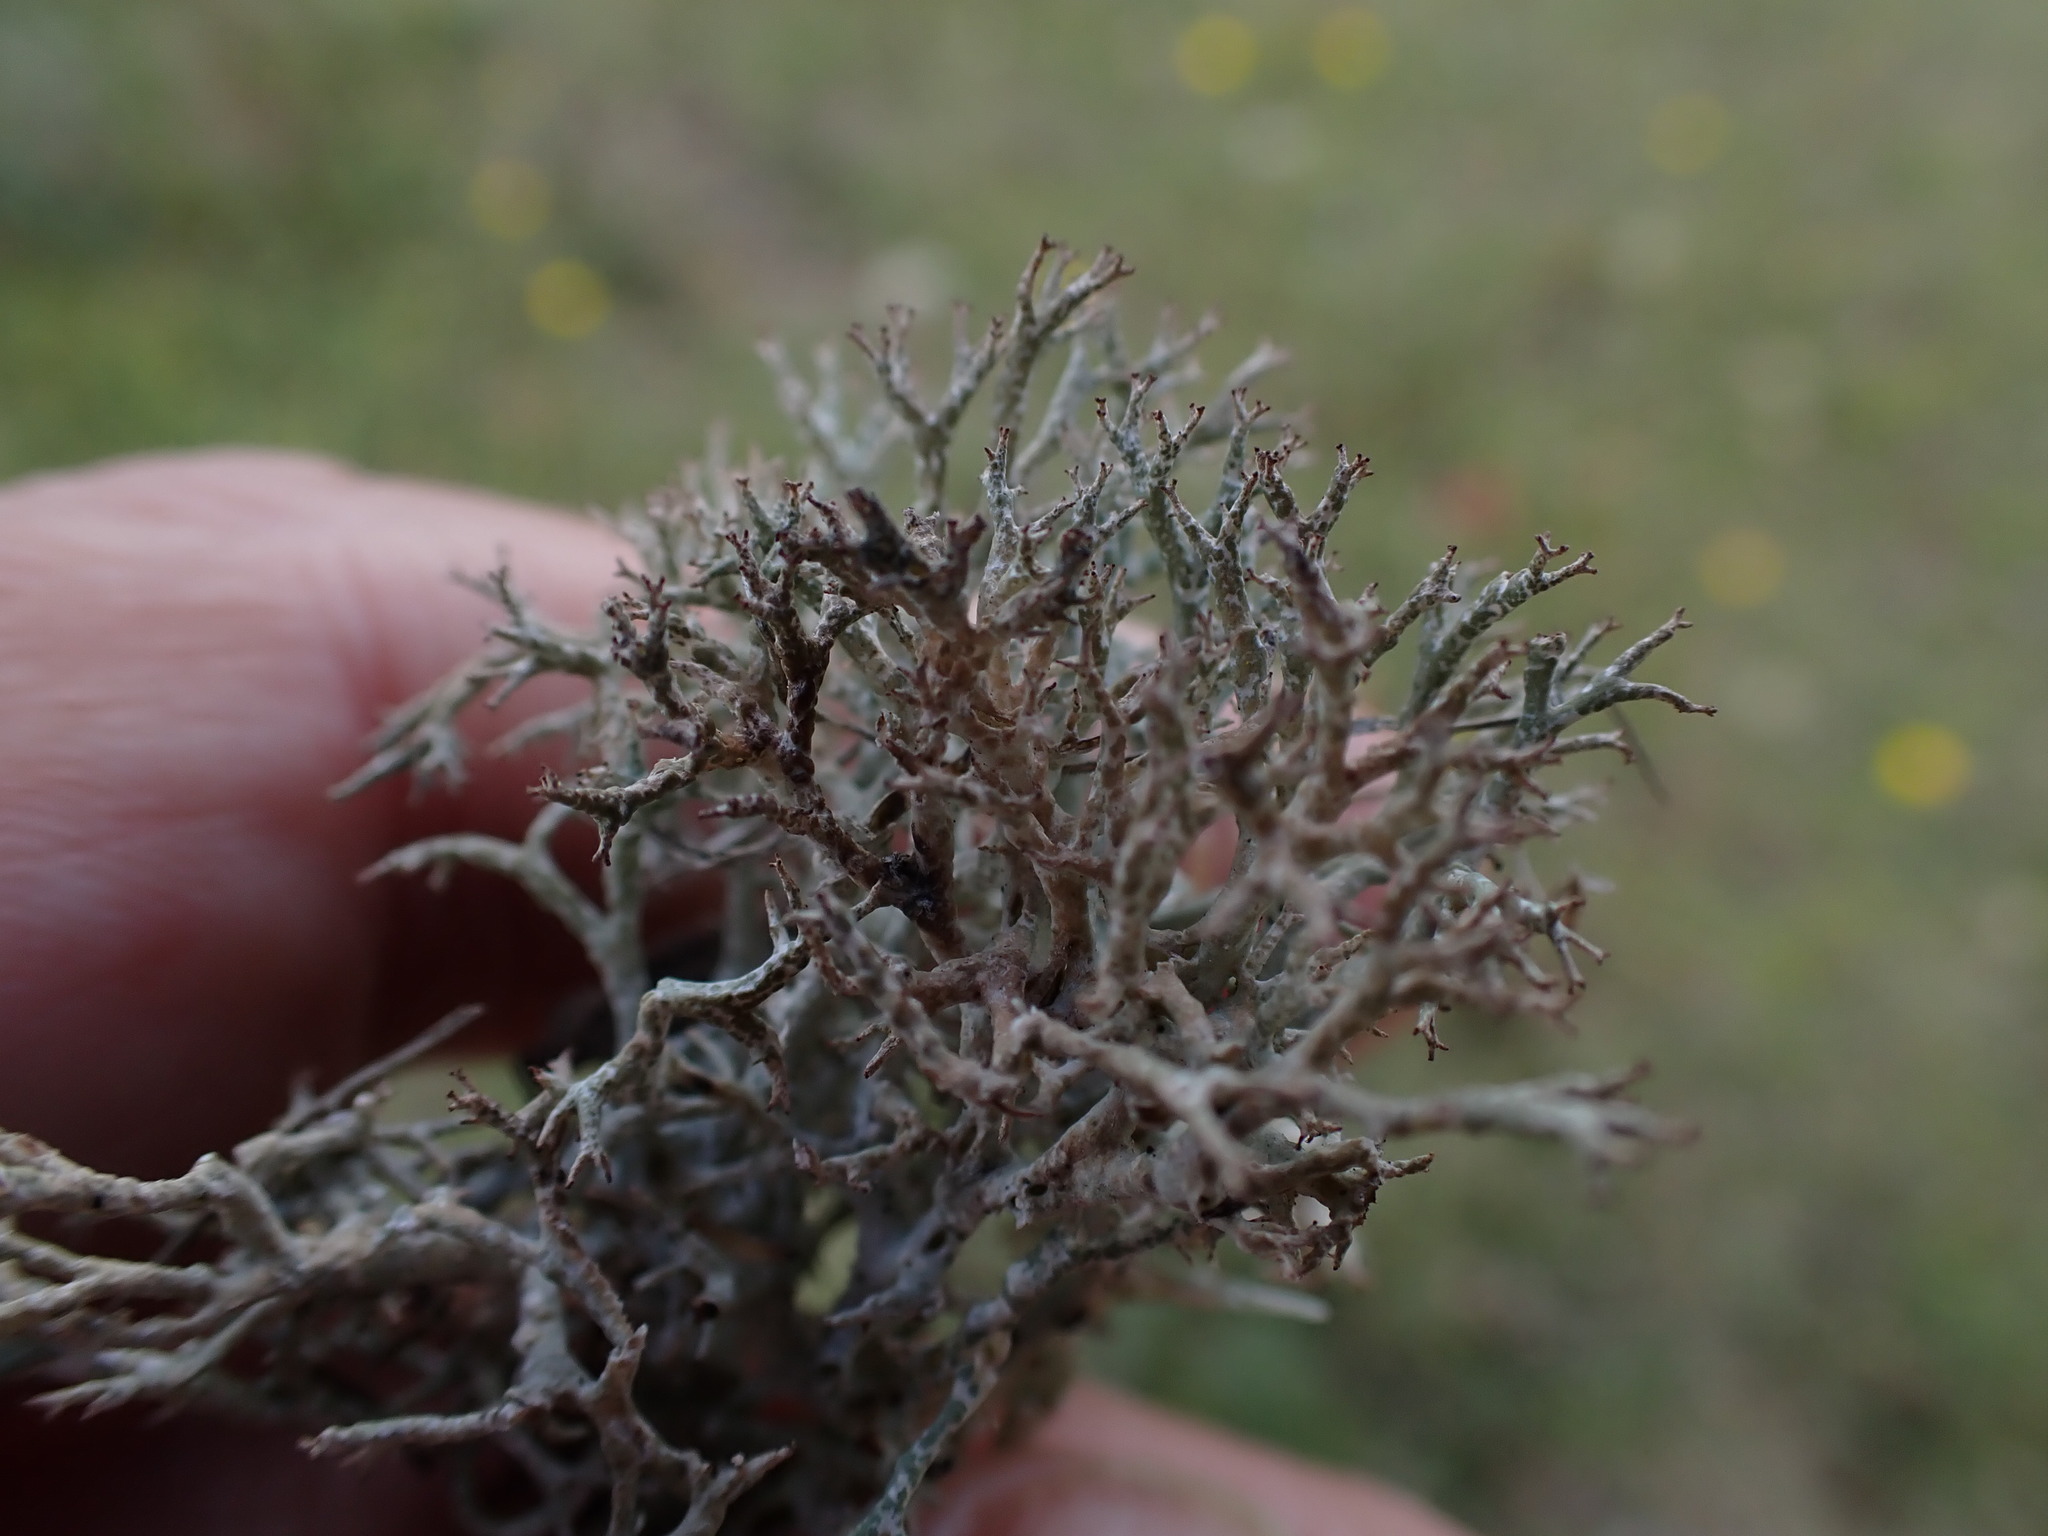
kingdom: Fungi
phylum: Ascomycota
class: Lecanoromycetes
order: Lecanorales
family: Cladoniaceae
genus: Cladonia
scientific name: Cladonia rangiformis
